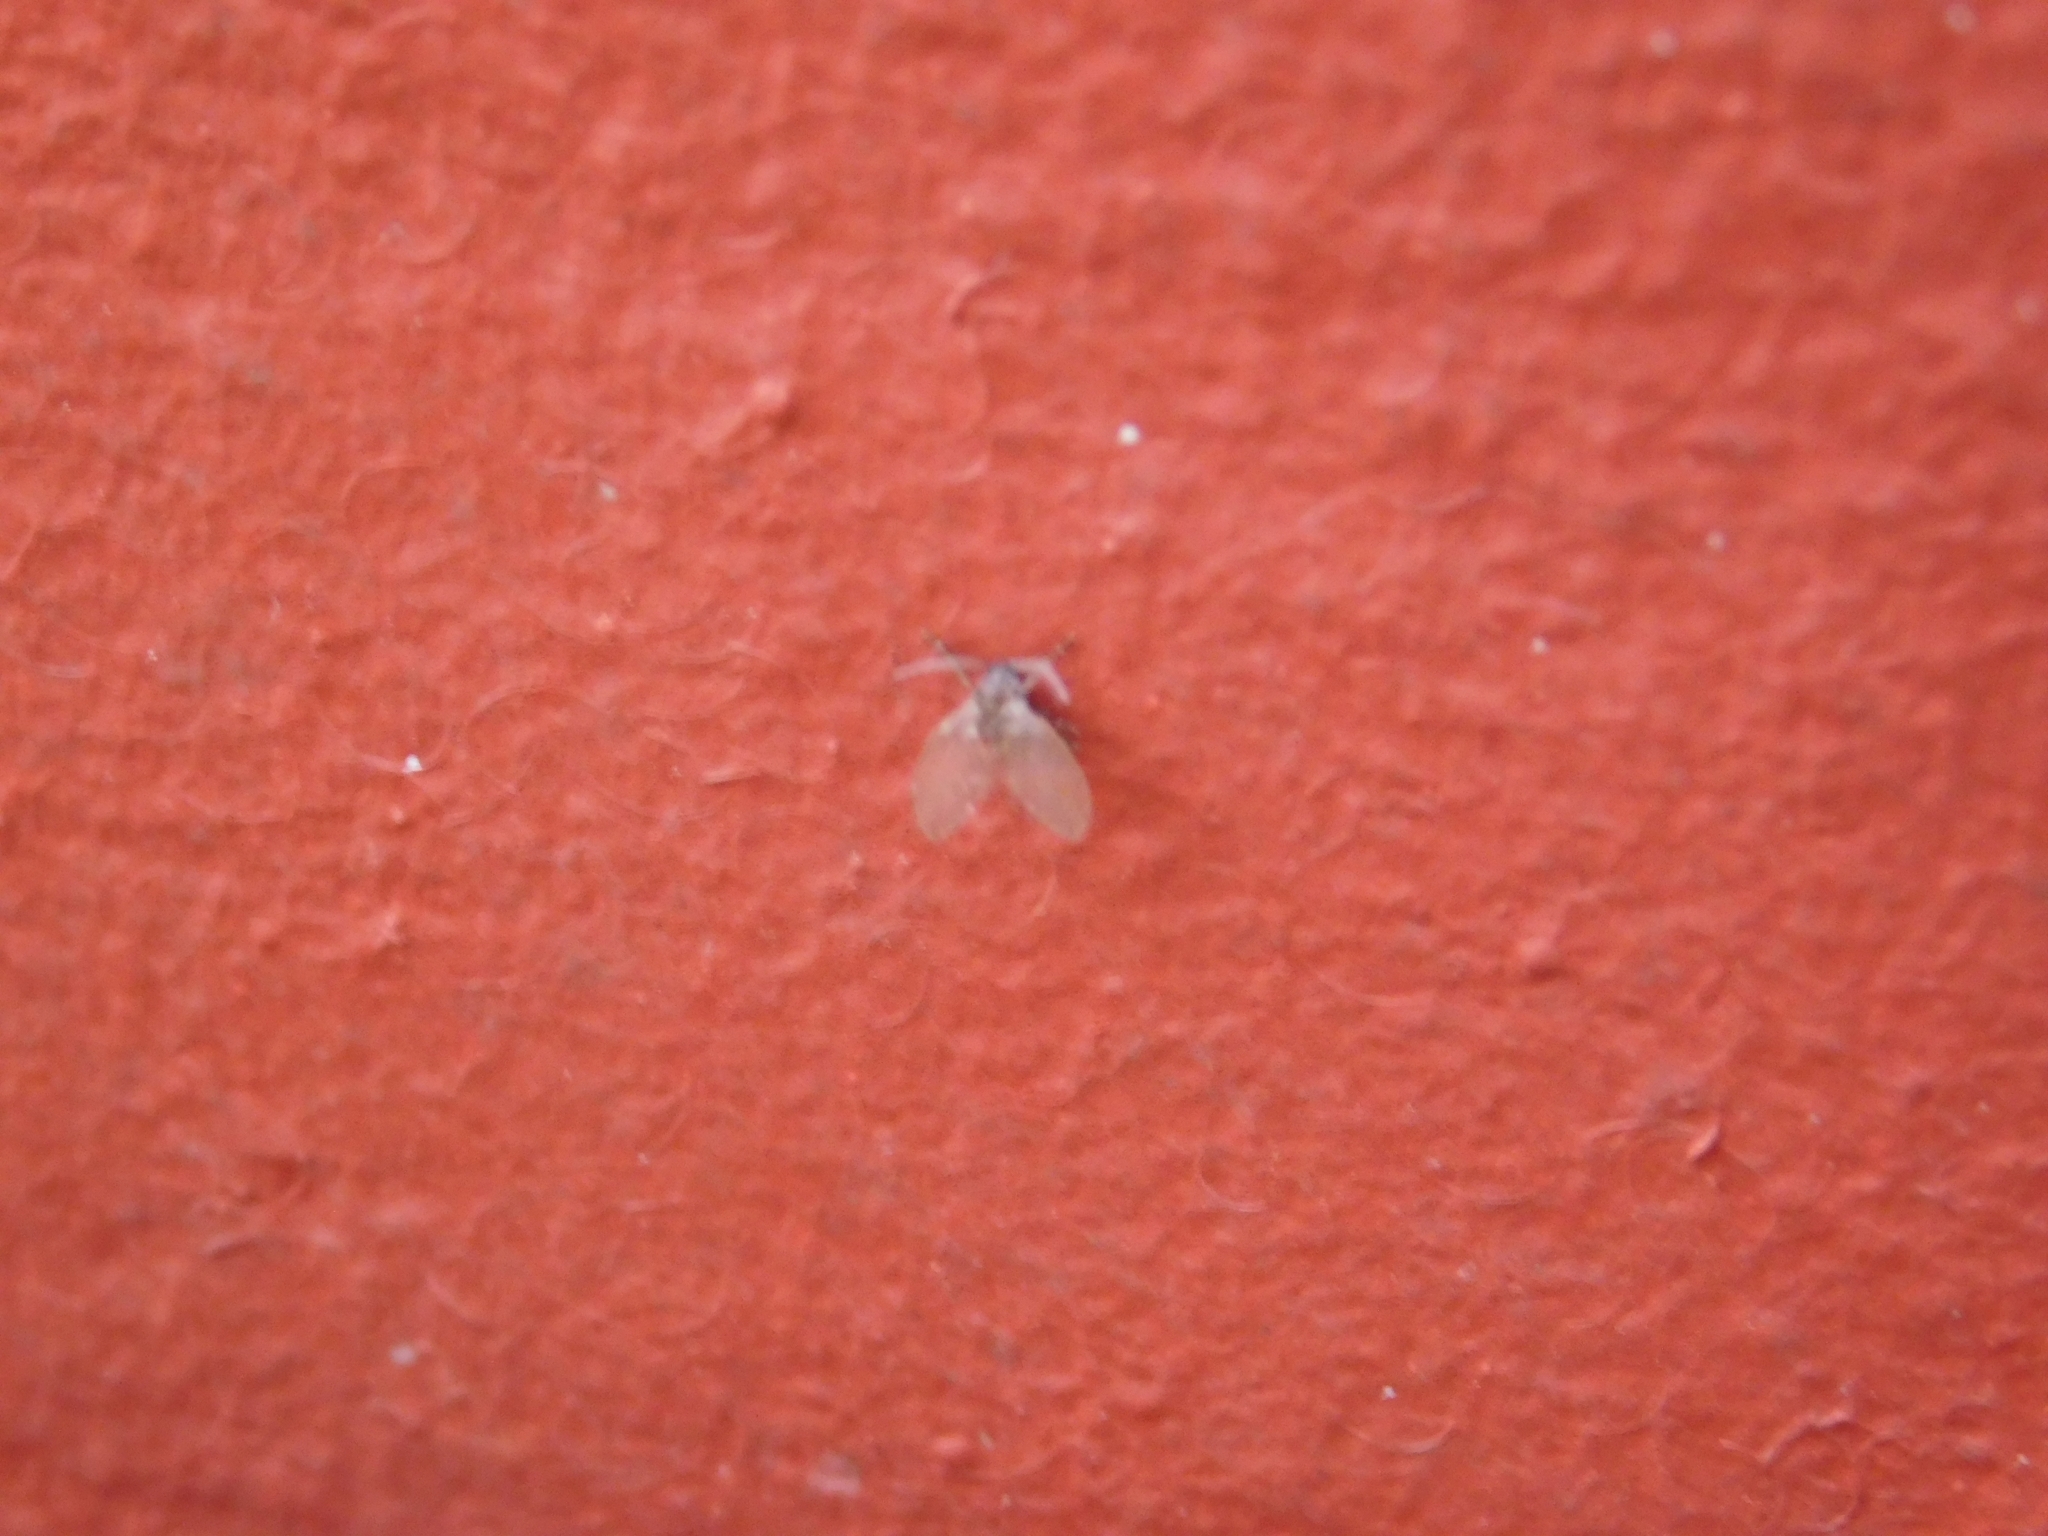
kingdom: Animalia
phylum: Arthropoda
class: Insecta
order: Diptera
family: Psychodidae
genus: Clogmia
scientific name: Clogmia albipunctatus
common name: White-spotted moth fly
